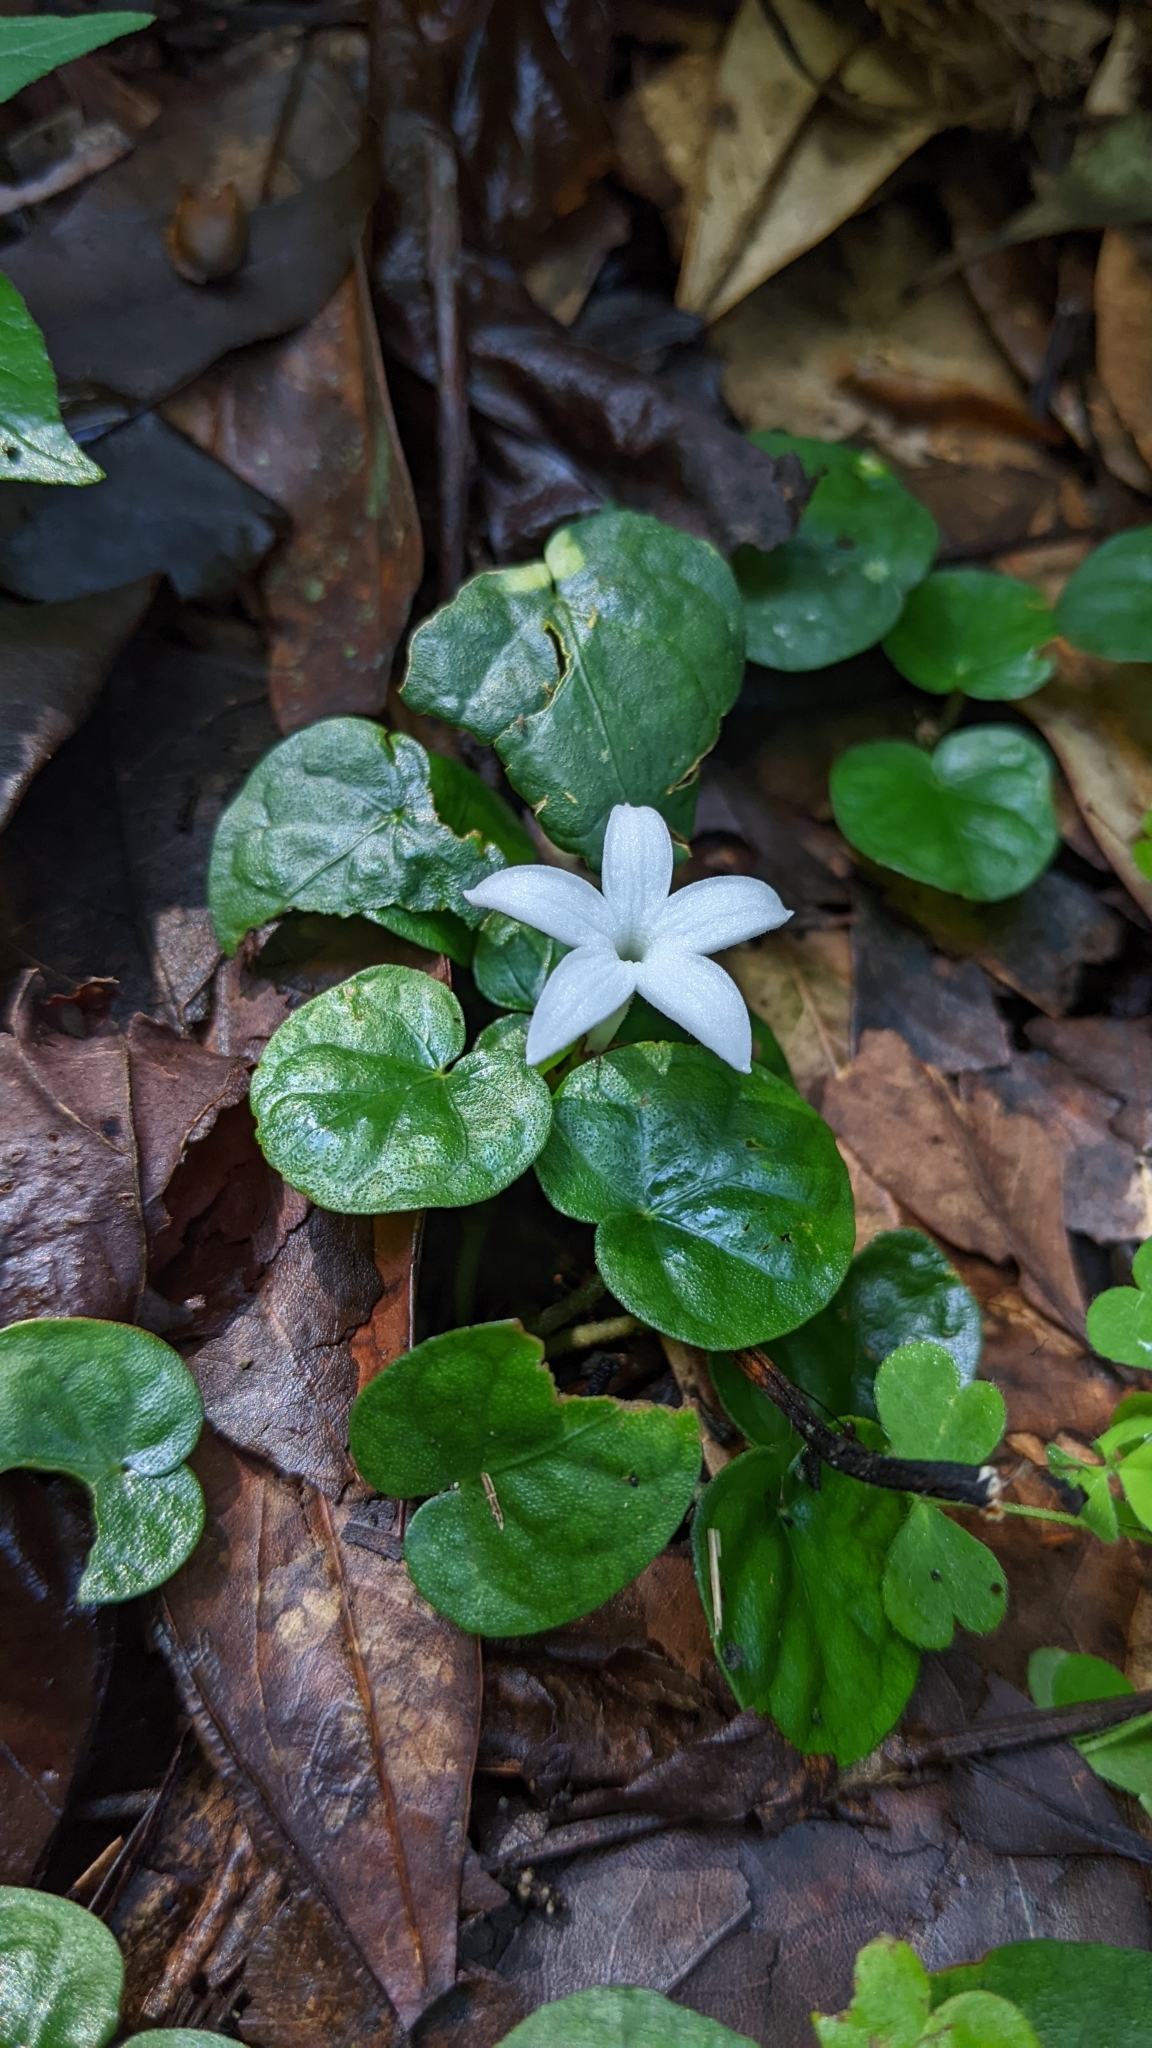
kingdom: Plantae
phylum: Tracheophyta
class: Magnoliopsida
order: Gentianales
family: Rubiaceae
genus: Geophila
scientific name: Geophila herbacea
